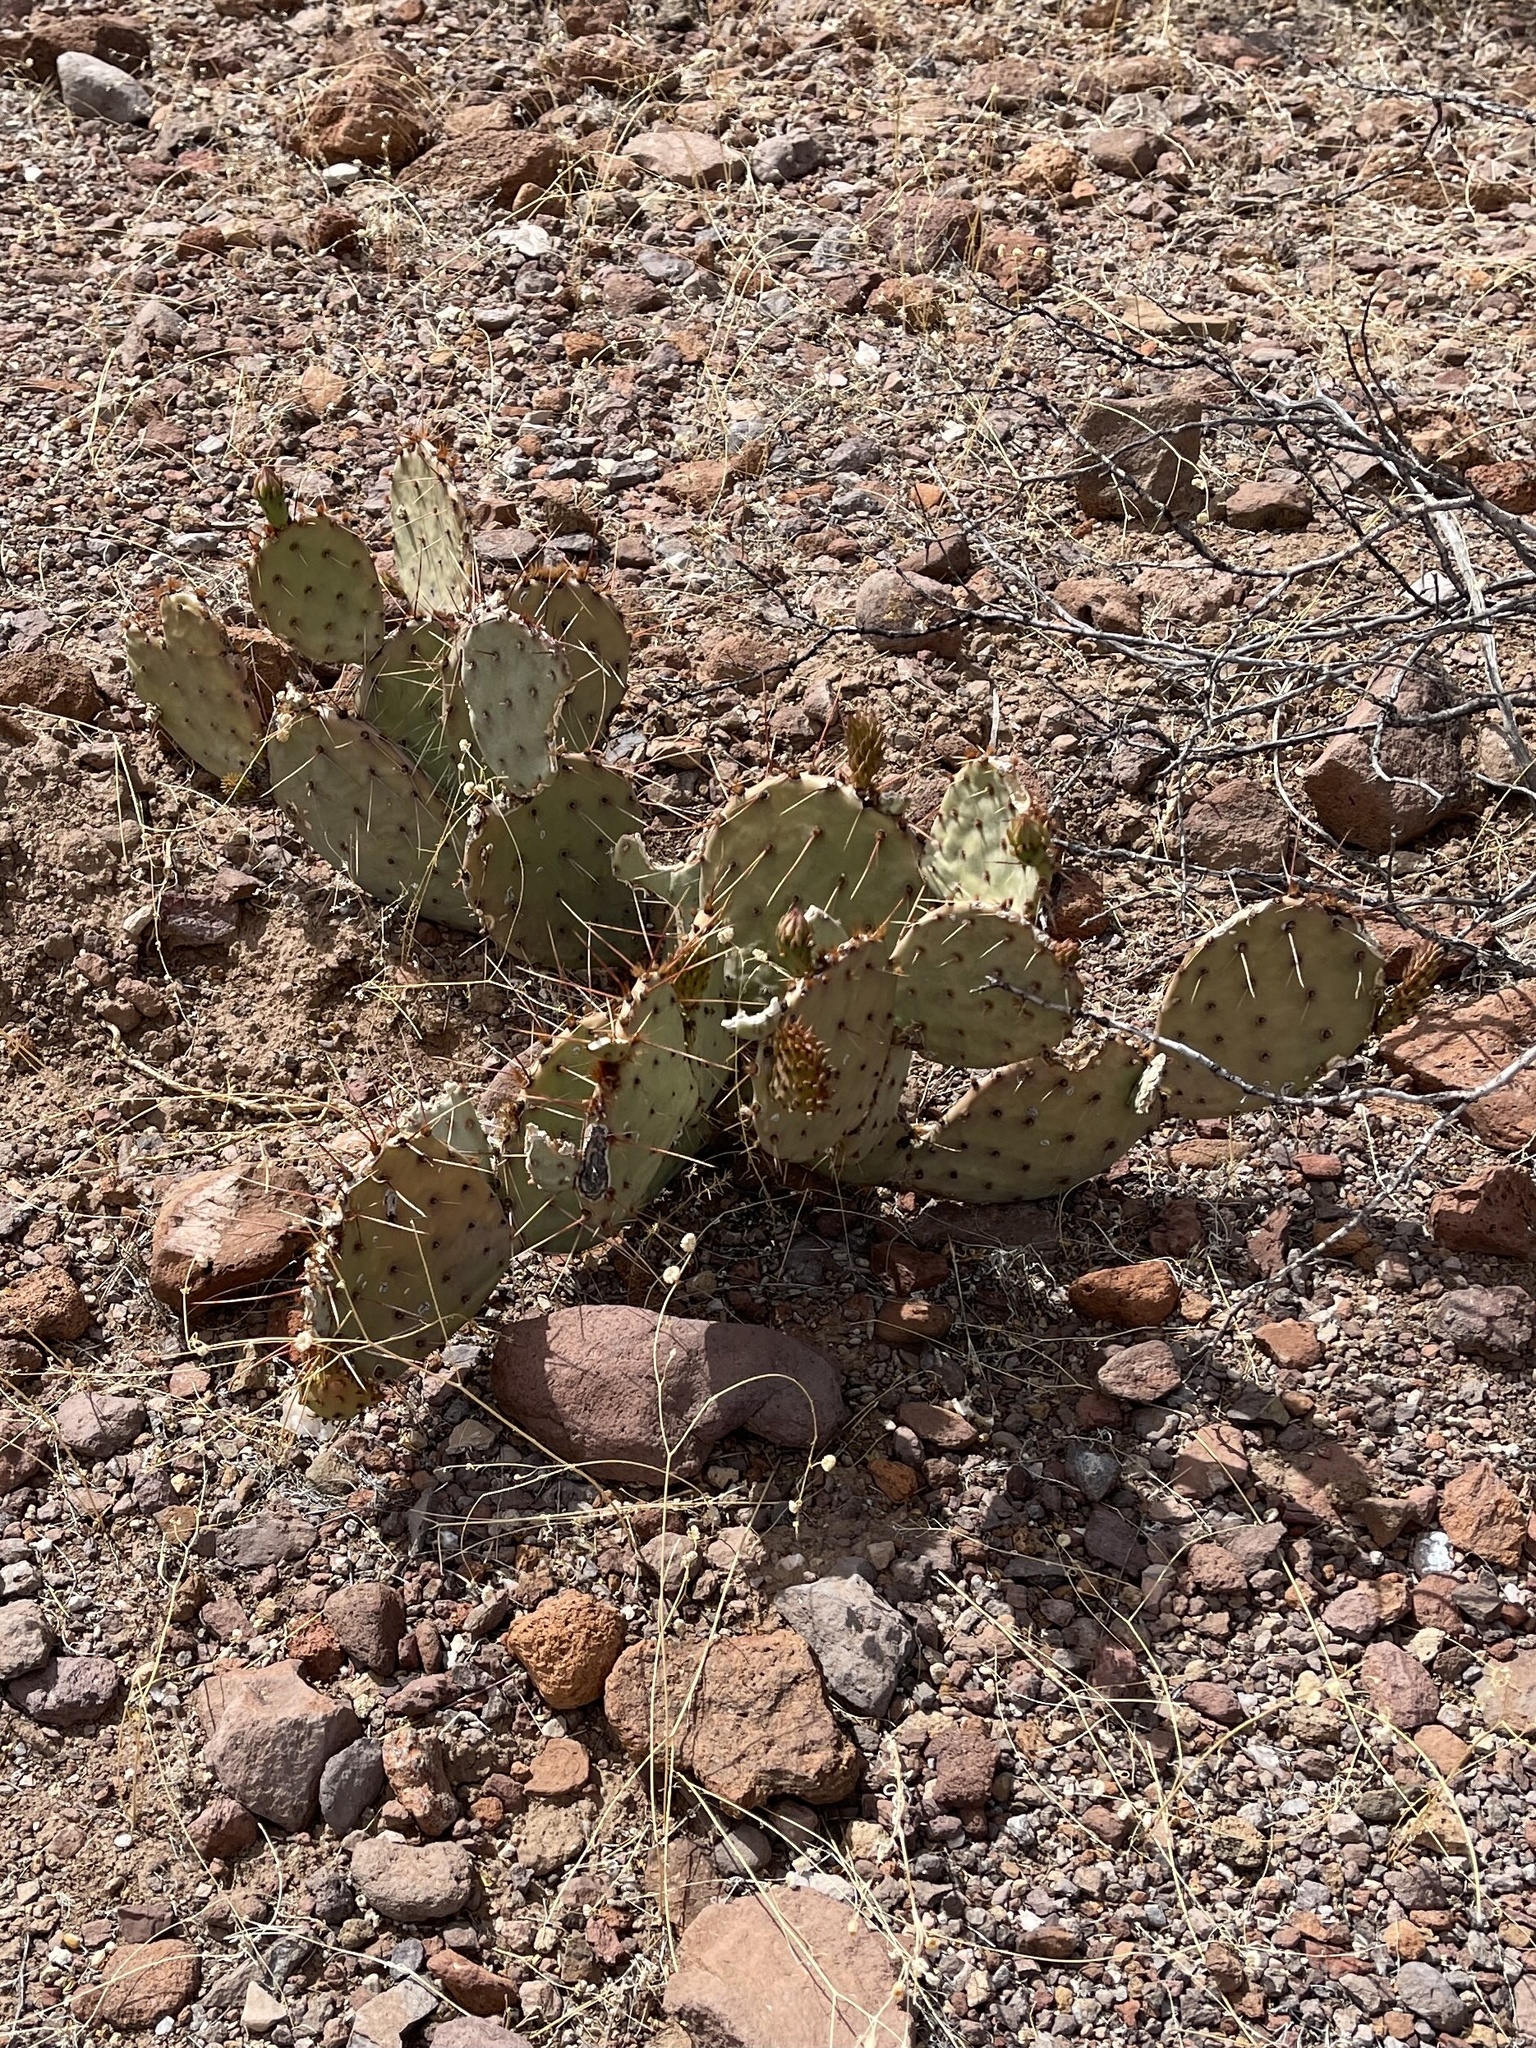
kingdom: Plantae
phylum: Tracheophyta
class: Magnoliopsida
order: Caryophyllales
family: Cactaceae
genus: Opuntia
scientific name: Opuntia phaeacantha
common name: New mexico prickly-pear
